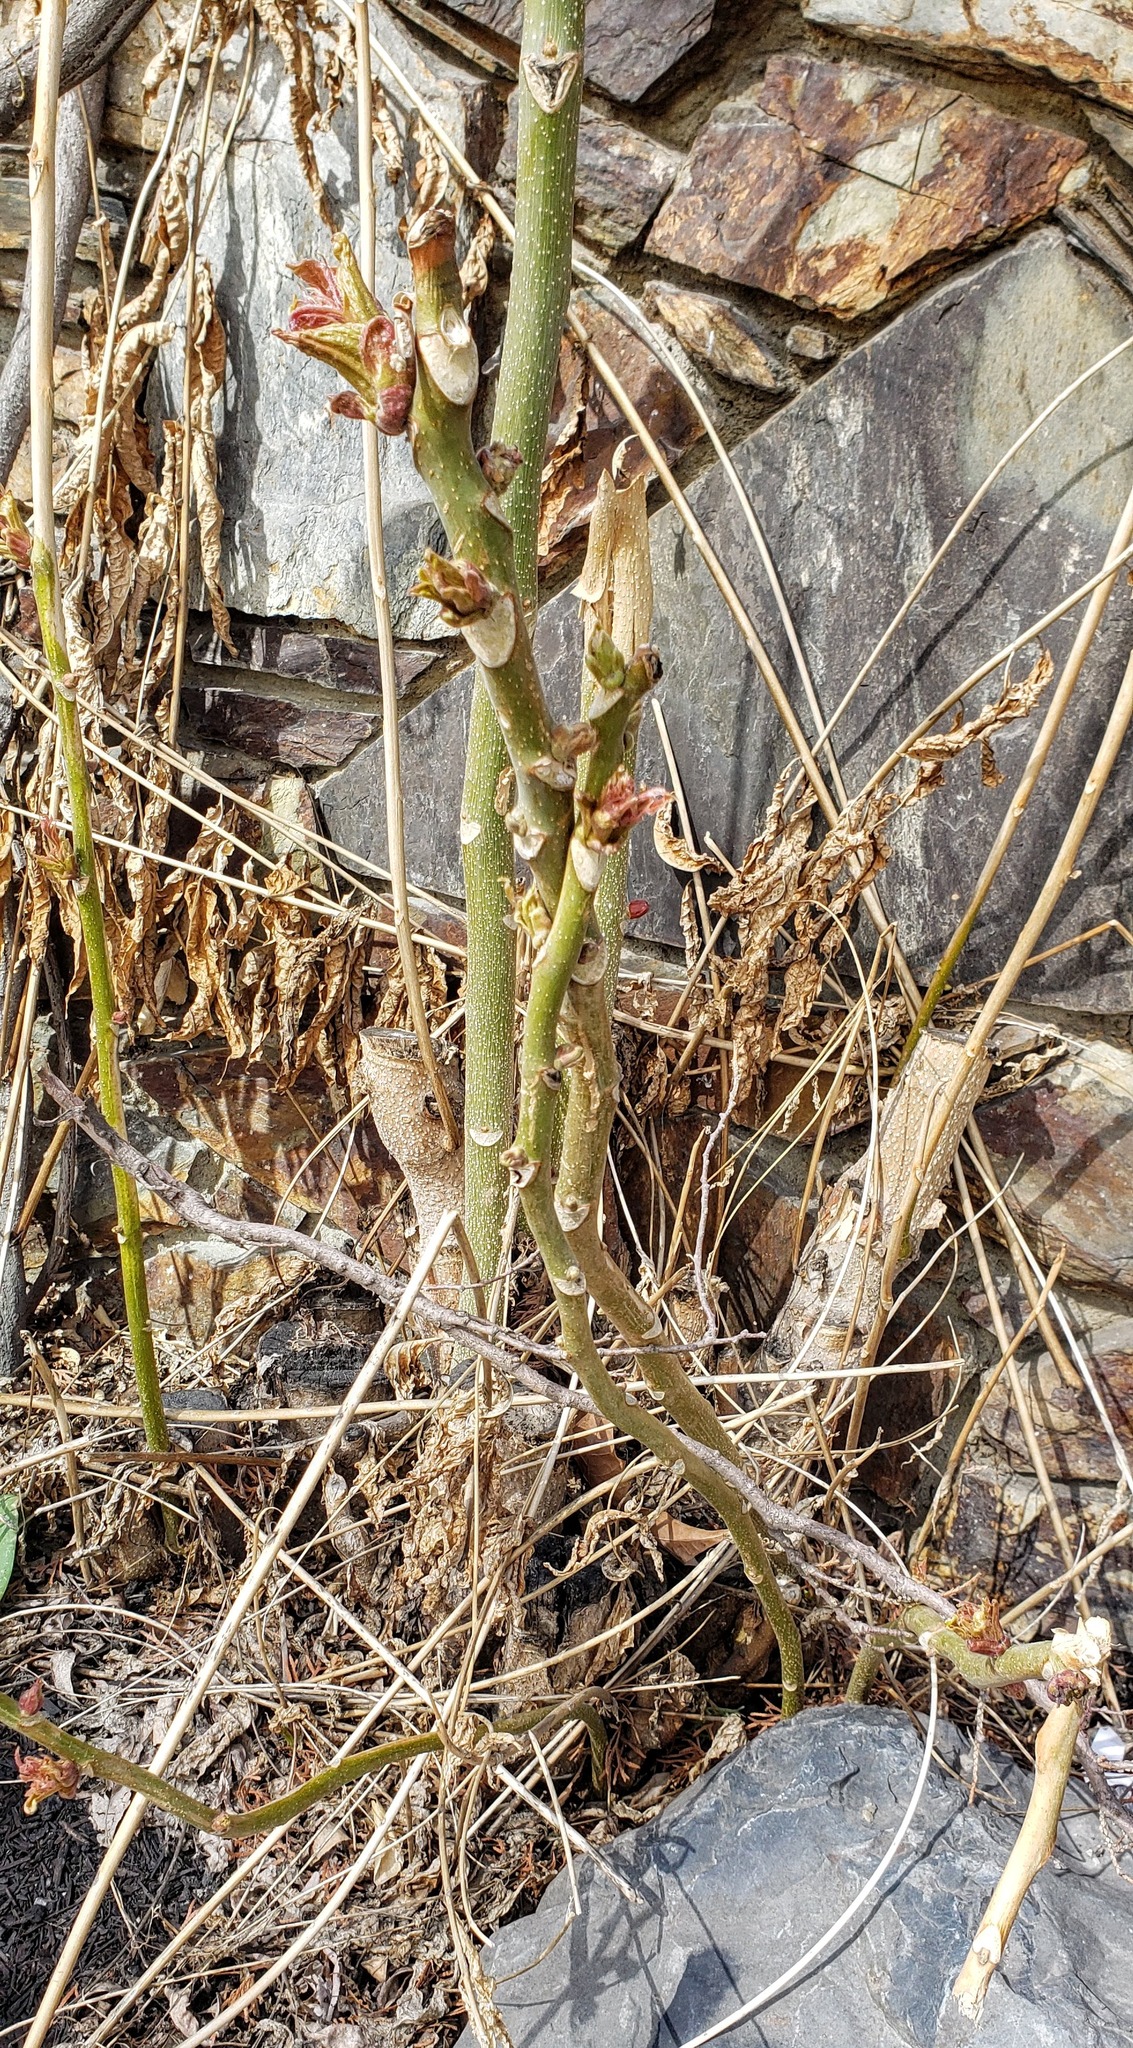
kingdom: Plantae
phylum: Tracheophyta
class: Magnoliopsida
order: Sapindales
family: Simaroubaceae
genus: Ailanthus
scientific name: Ailanthus altissima
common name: Tree-of-heaven
